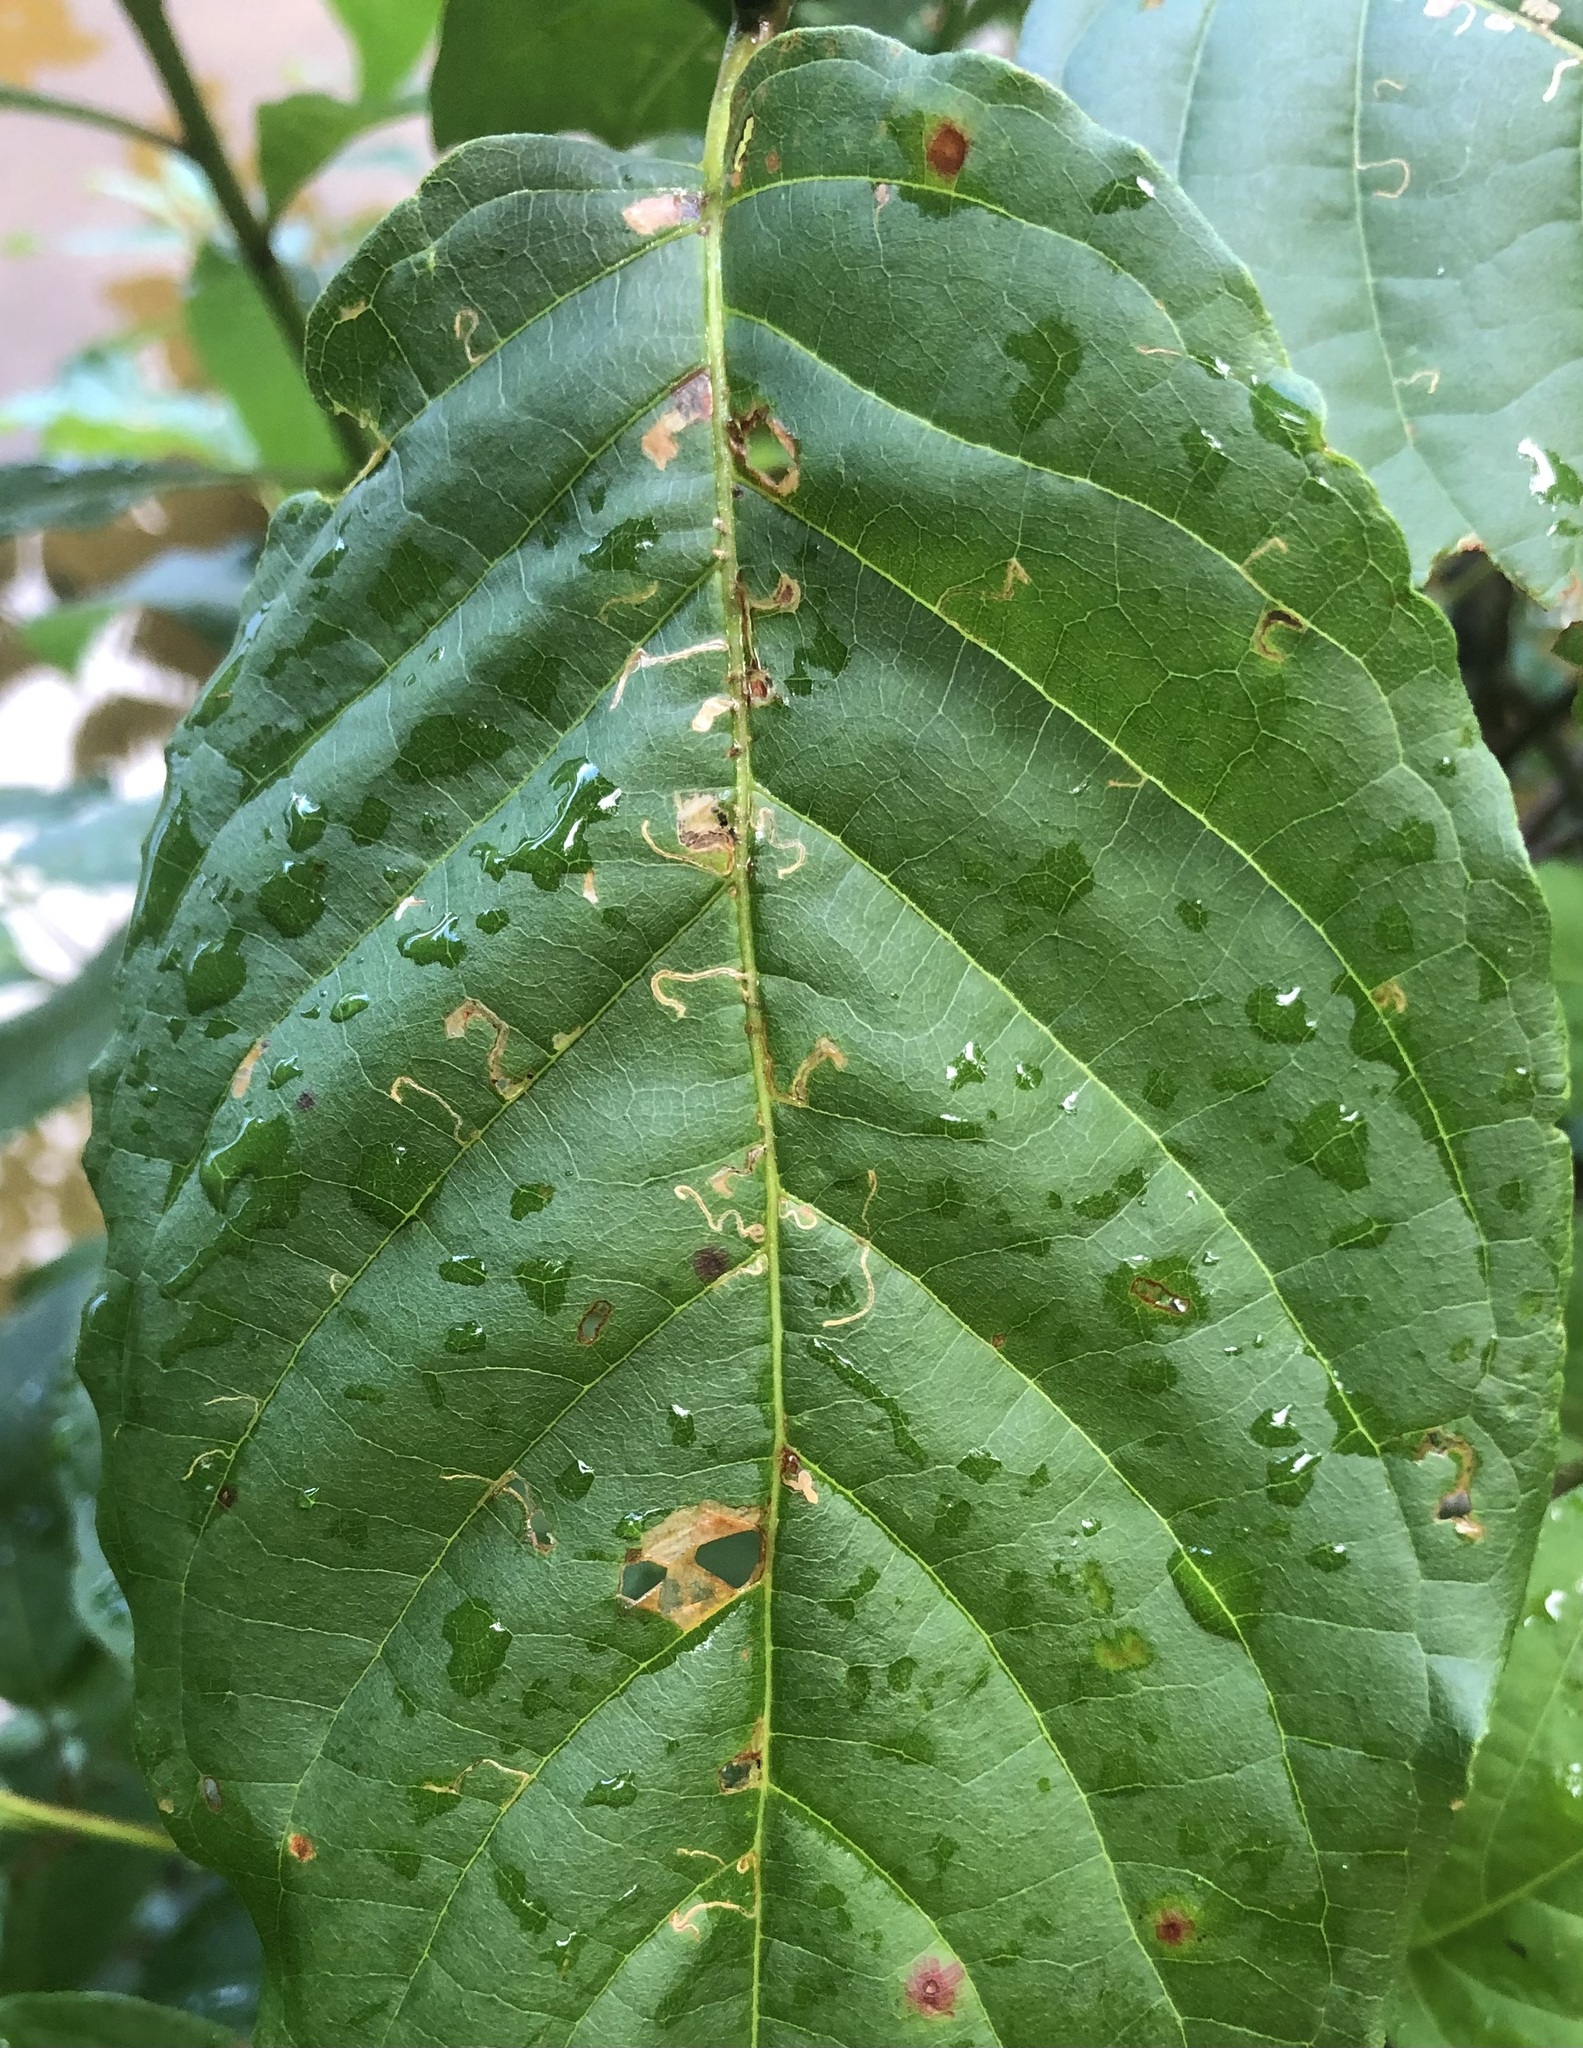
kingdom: Animalia
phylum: Arthropoda
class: Insecta
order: Lepidoptera
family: Momphidae
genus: Mompha
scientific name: Mompha solomoni
